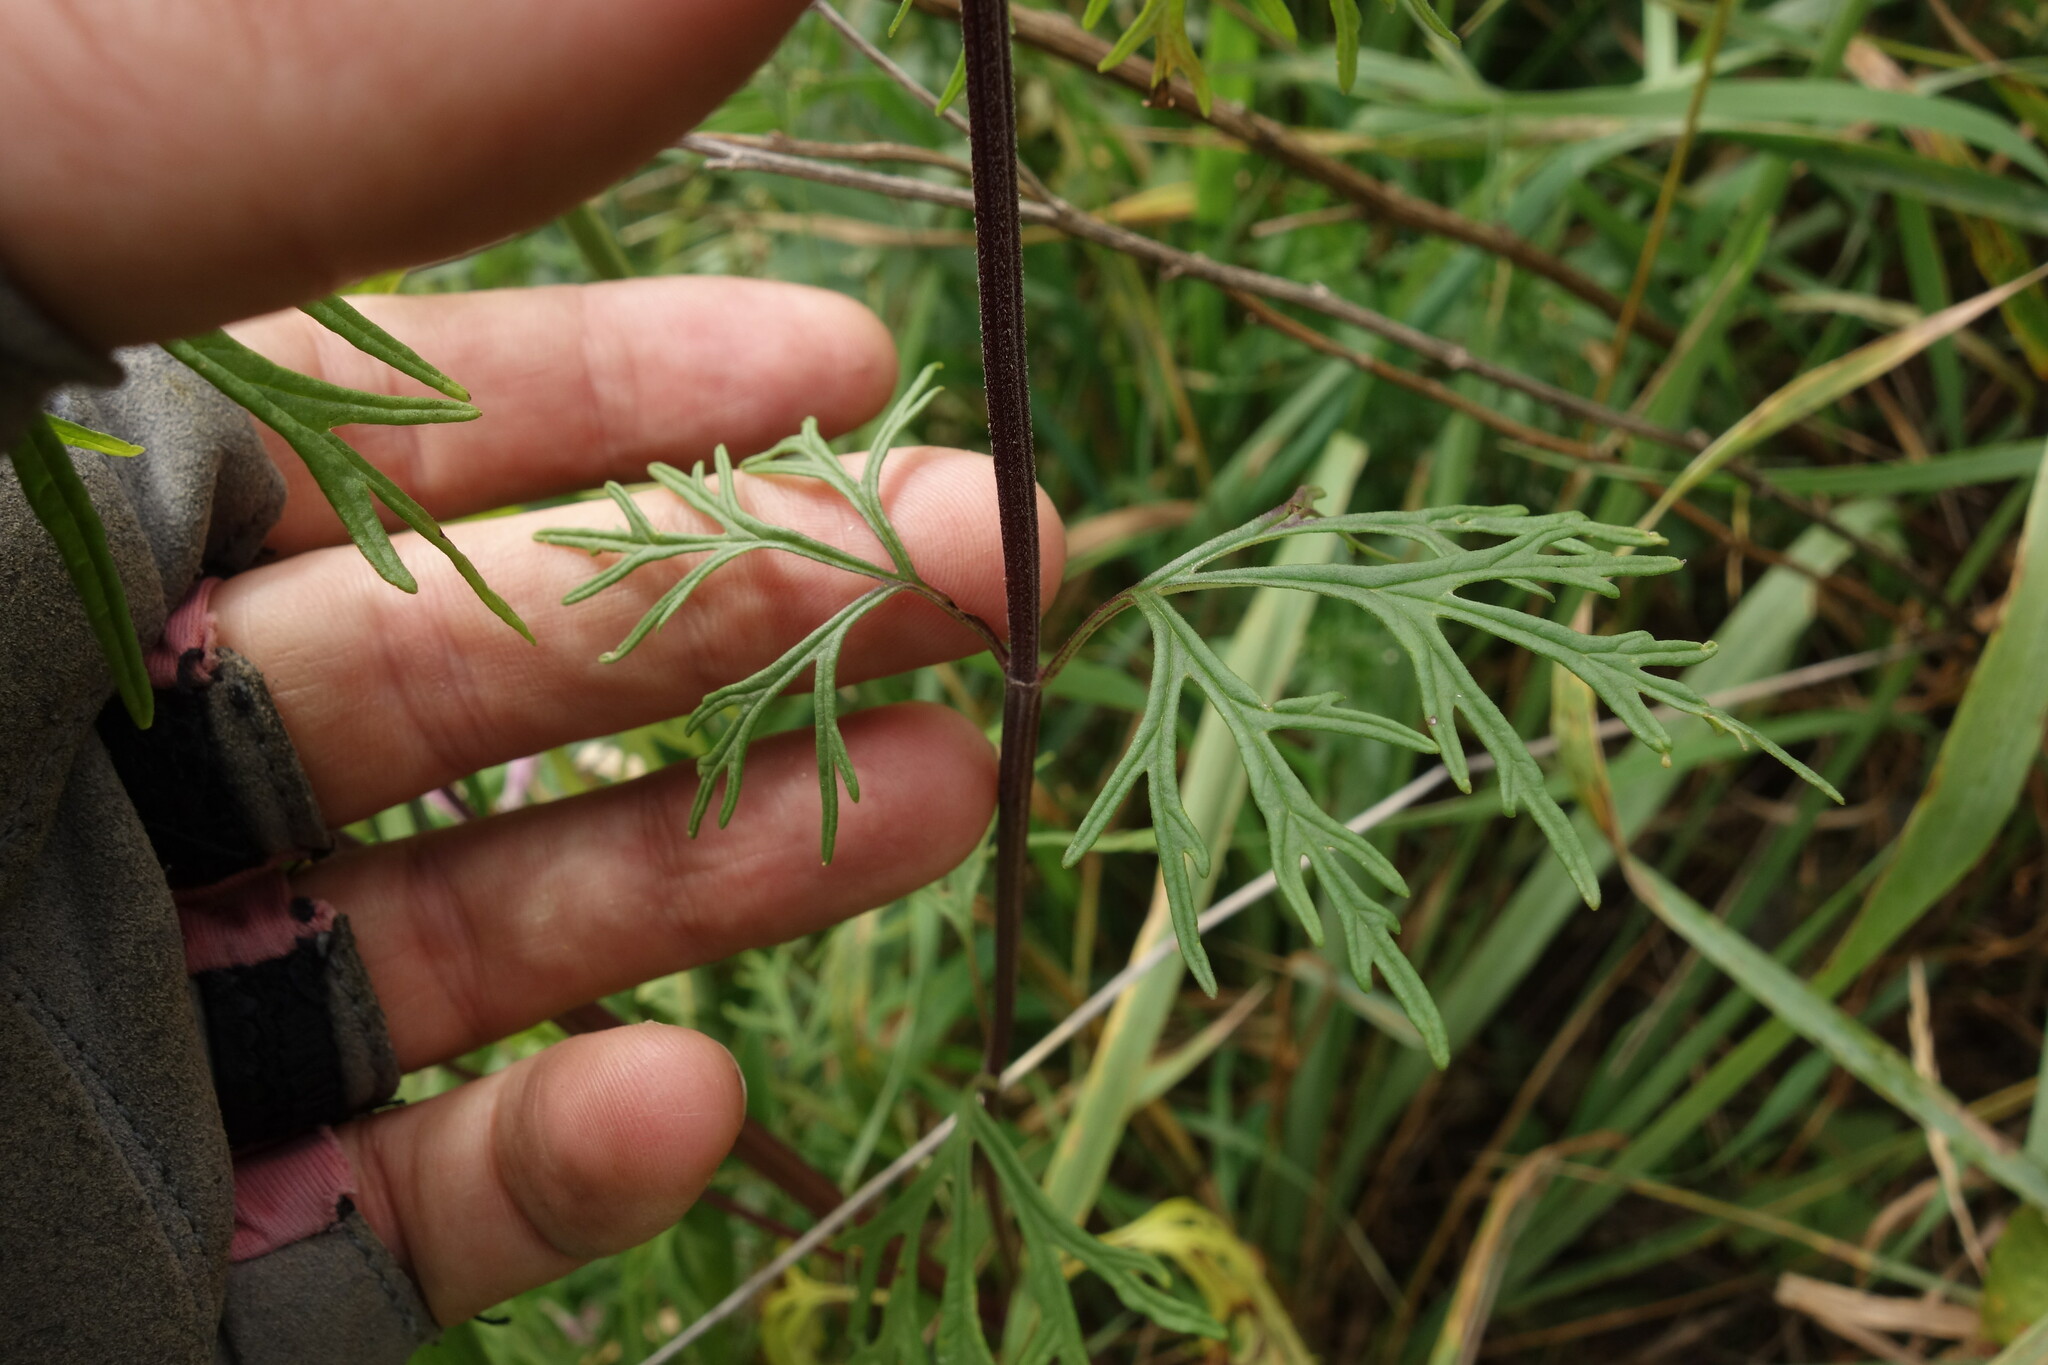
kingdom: Plantae
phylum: Tracheophyta
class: Magnoliopsida
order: Lamiales
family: Lamiaceae
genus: Leonurus
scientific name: Leonurus sibiricus
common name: Honeyweed
